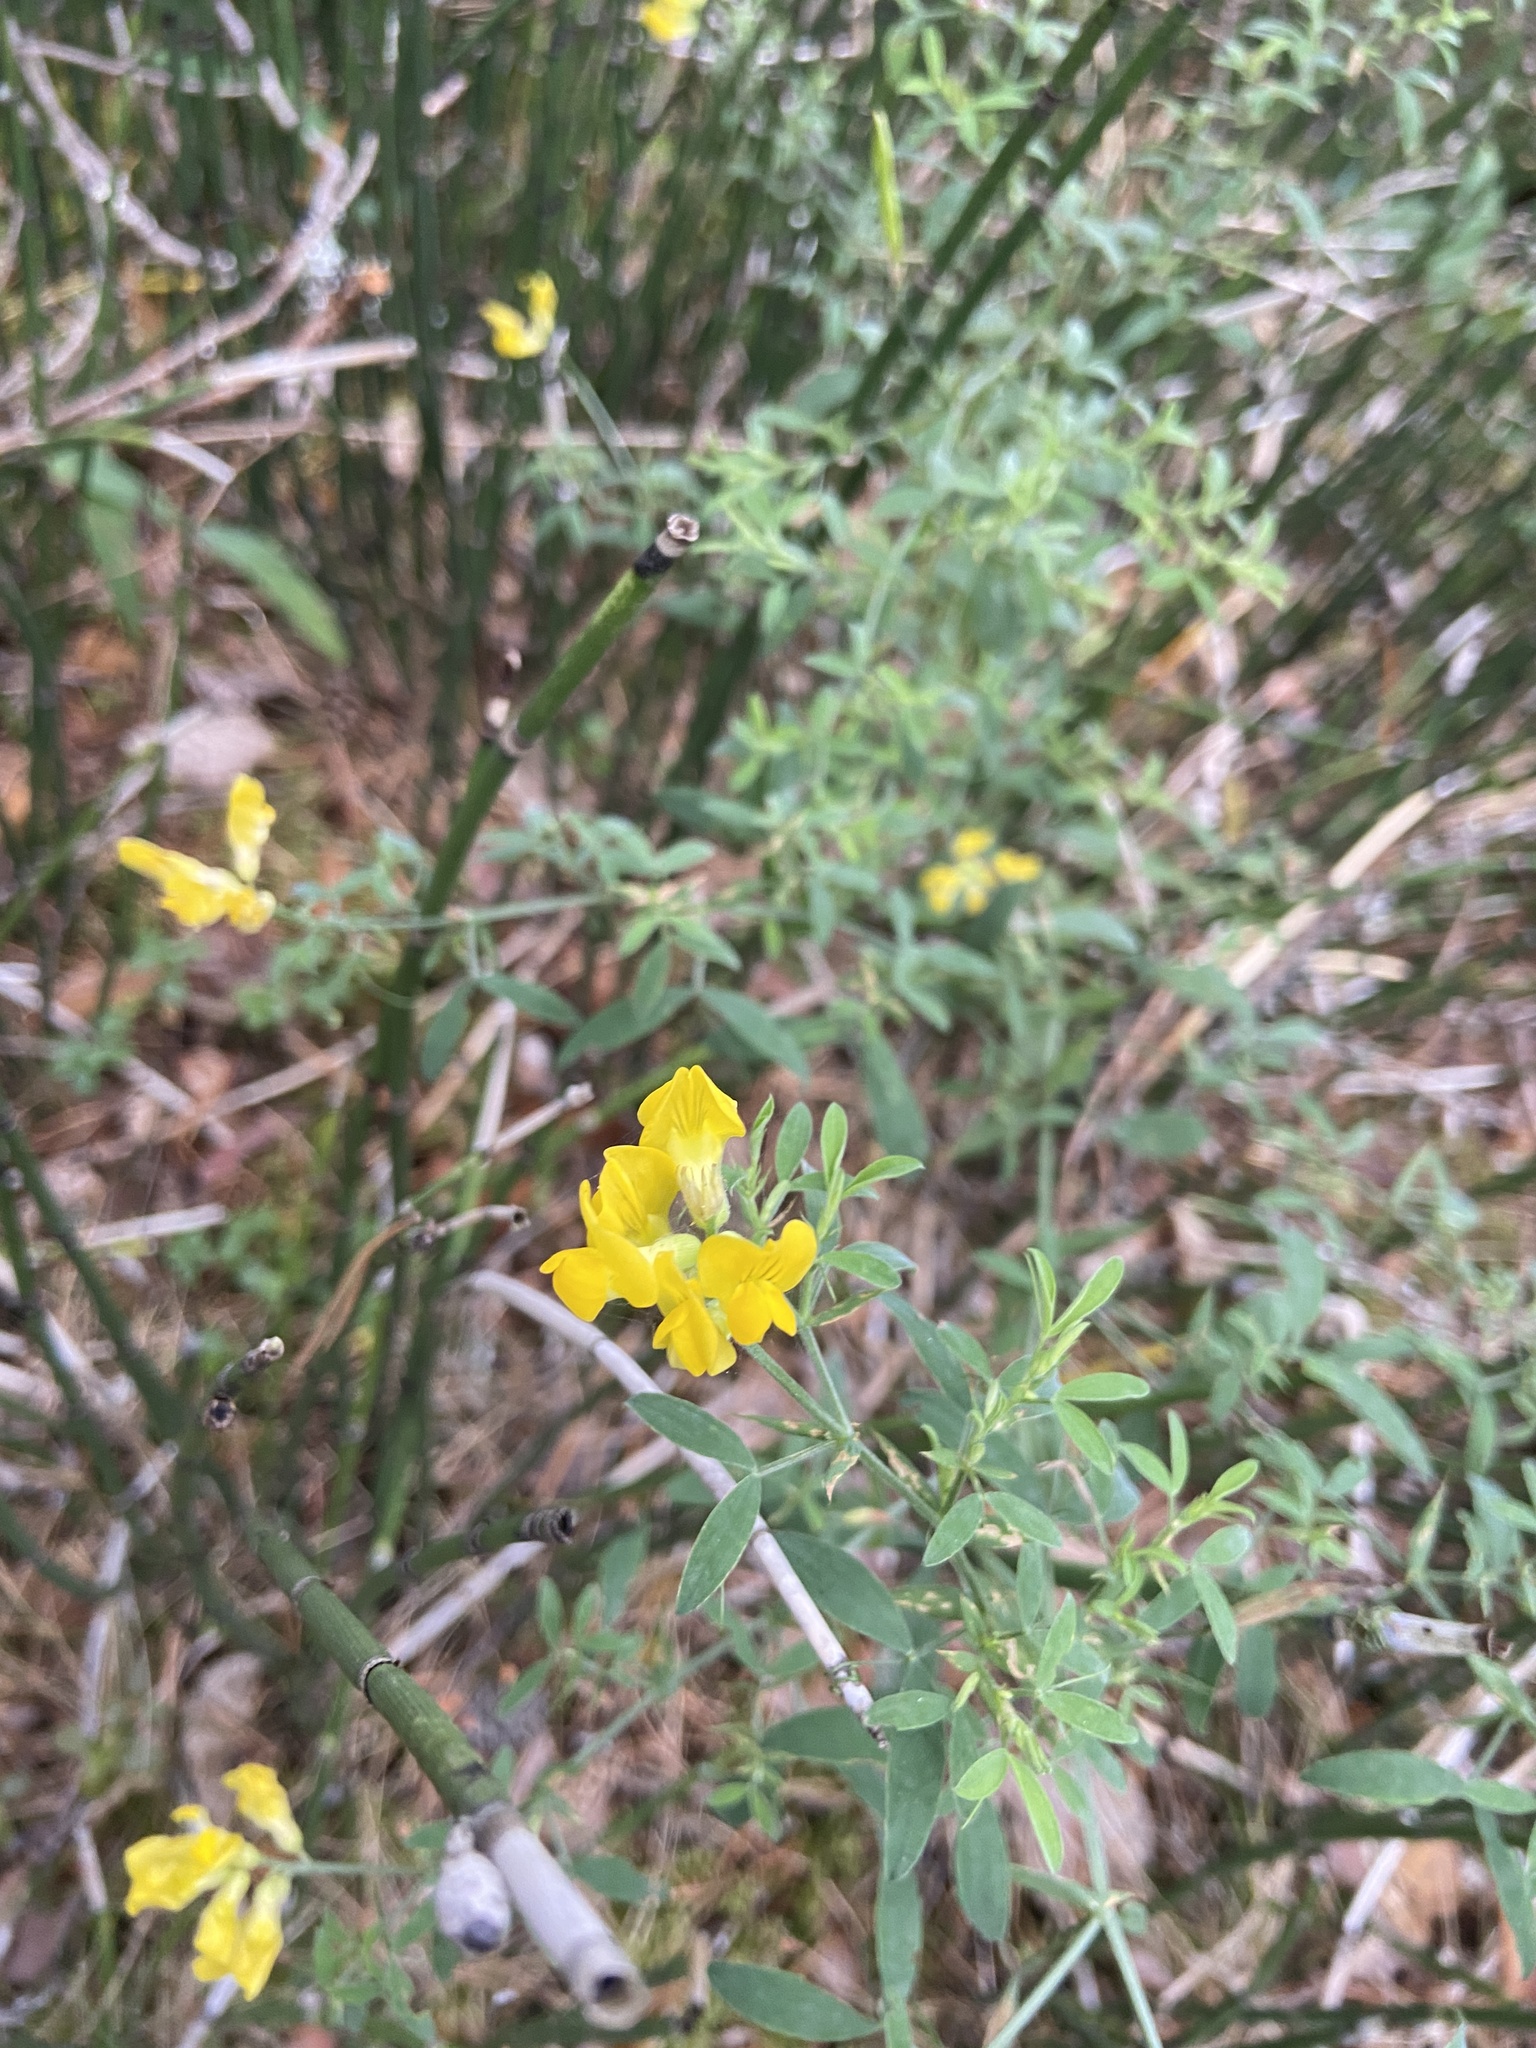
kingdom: Plantae
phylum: Tracheophyta
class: Magnoliopsida
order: Fabales
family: Fabaceae
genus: Lathyrus
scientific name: Lathyrus pratensis
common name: Meadow vetchling
